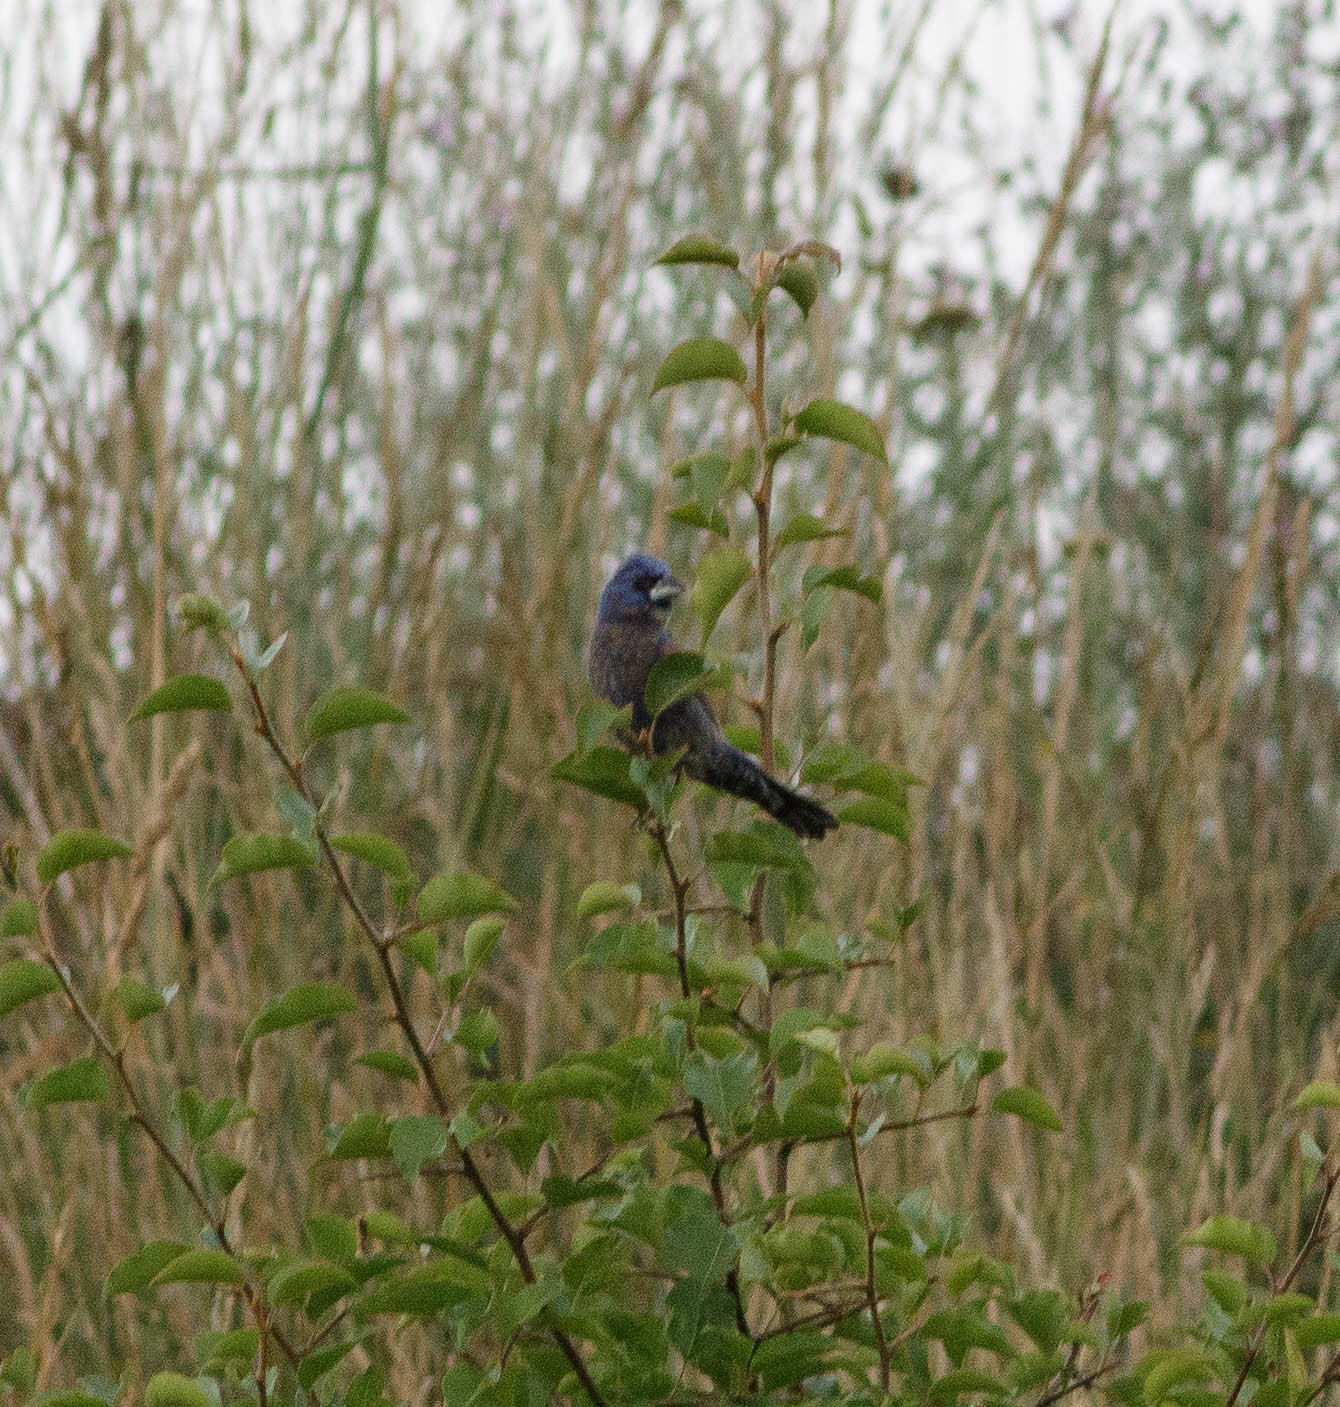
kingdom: Animalia
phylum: Chordata
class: Aves
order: Passeriformes
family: Cardinalidae
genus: Passerina
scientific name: Passerina caerulea
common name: Blue grosbeak
